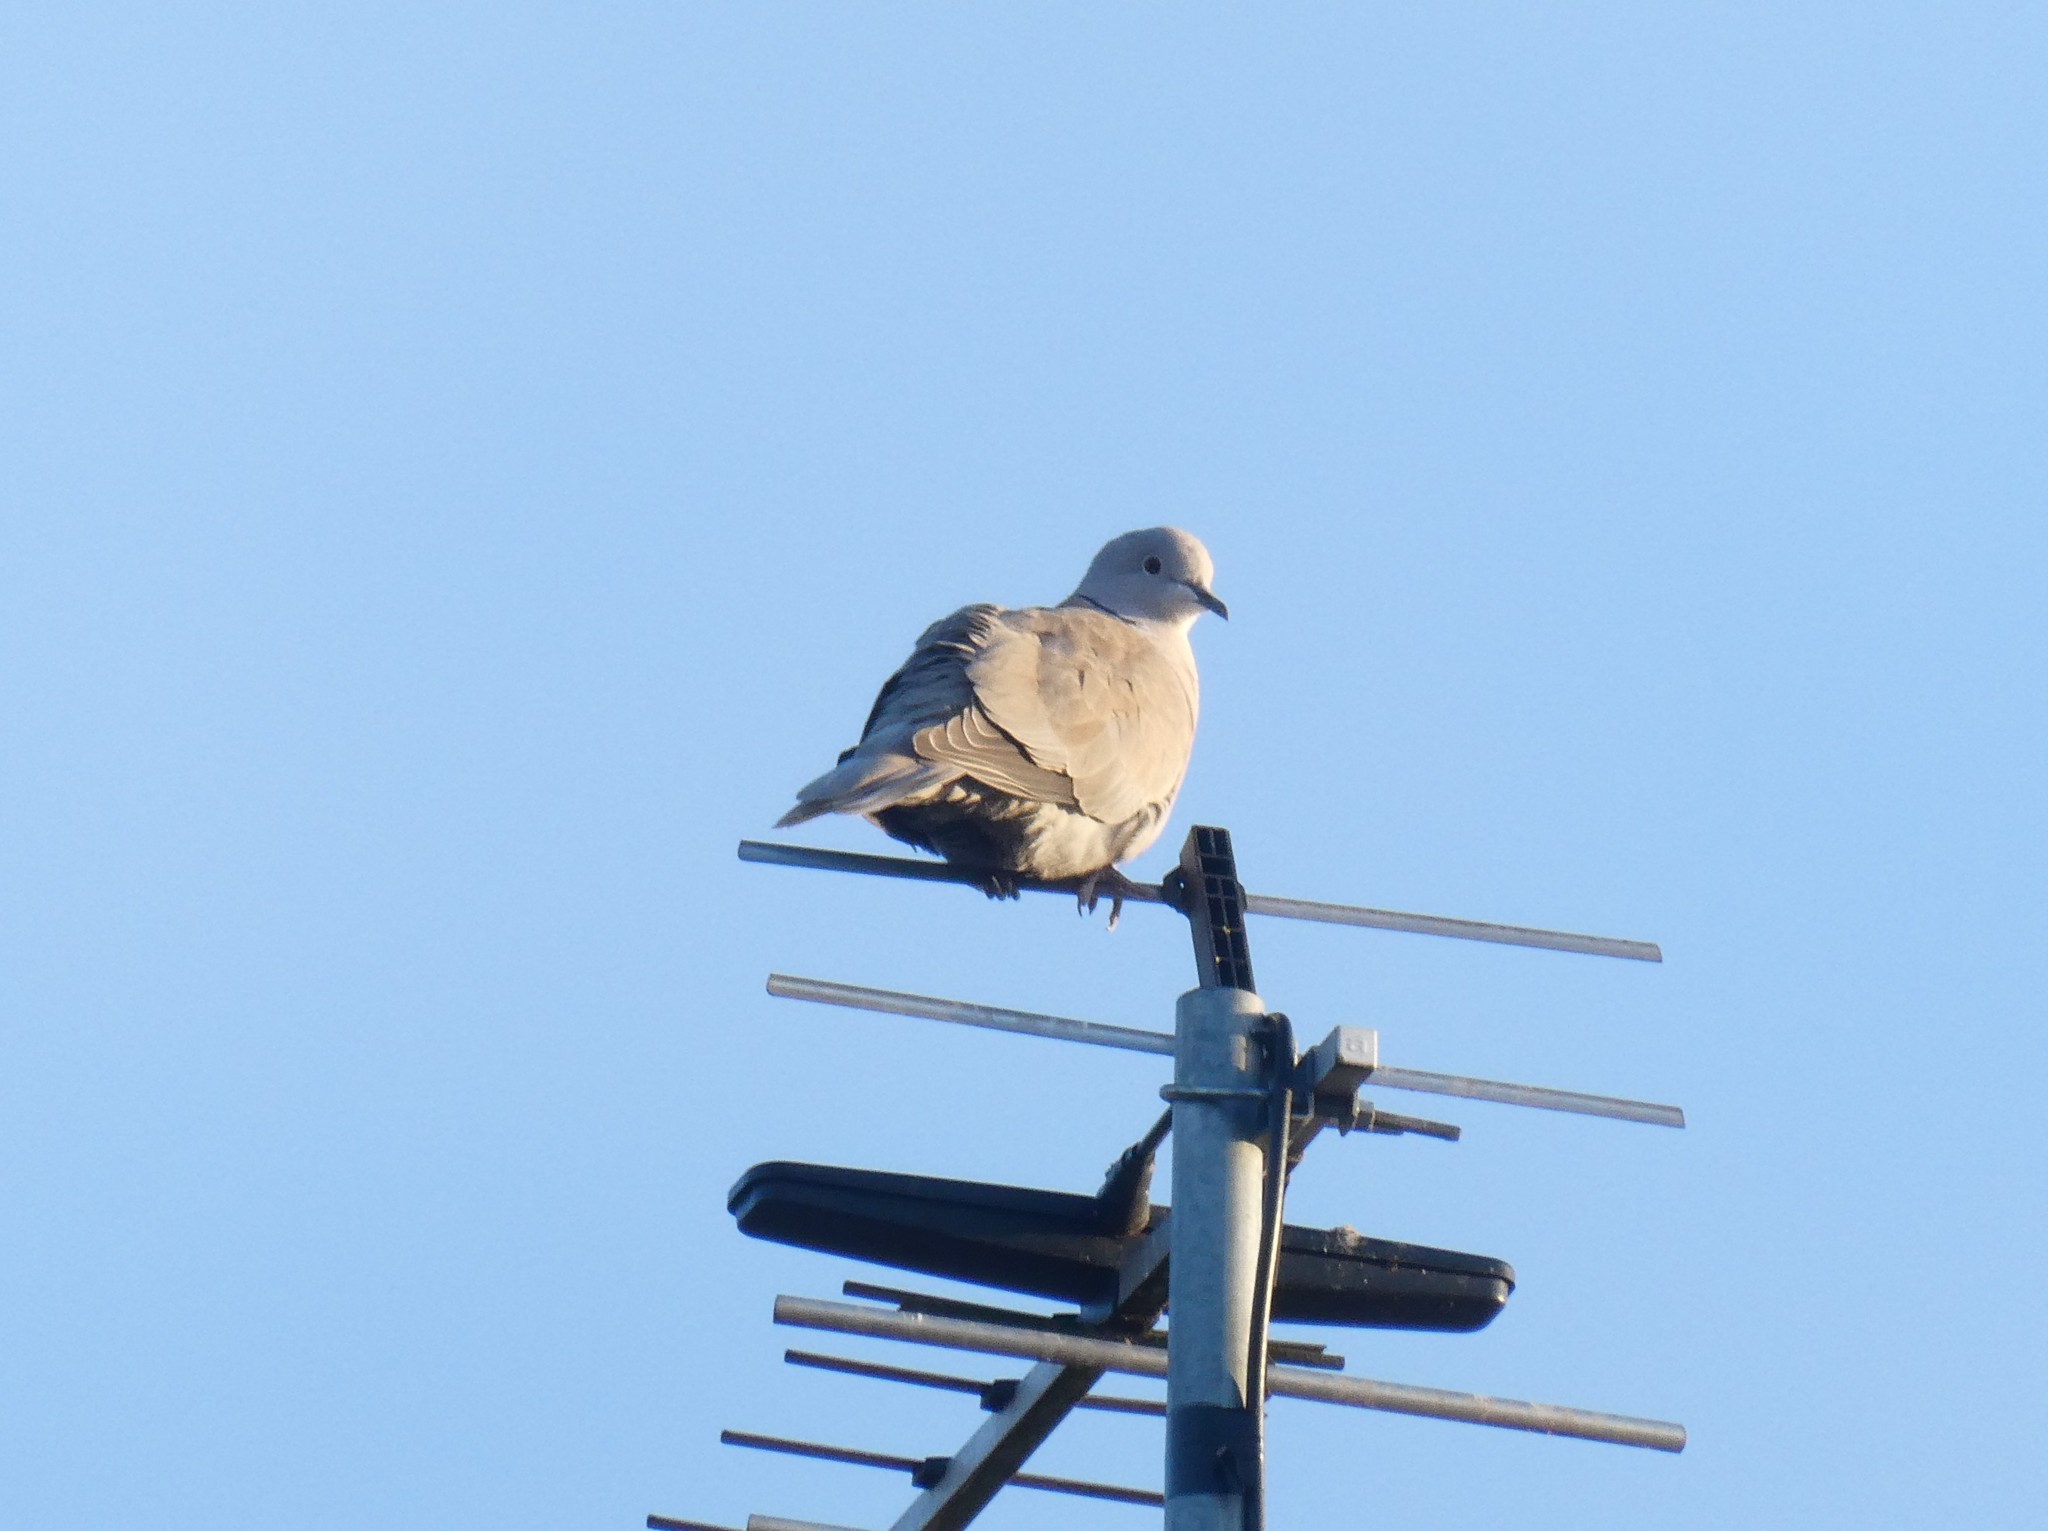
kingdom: Animalia
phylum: Chordata
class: Aves
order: Columbiformes
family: Columbidae
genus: Streptopelia
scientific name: Streptopelia decaocto
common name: Eurasian collared dove
